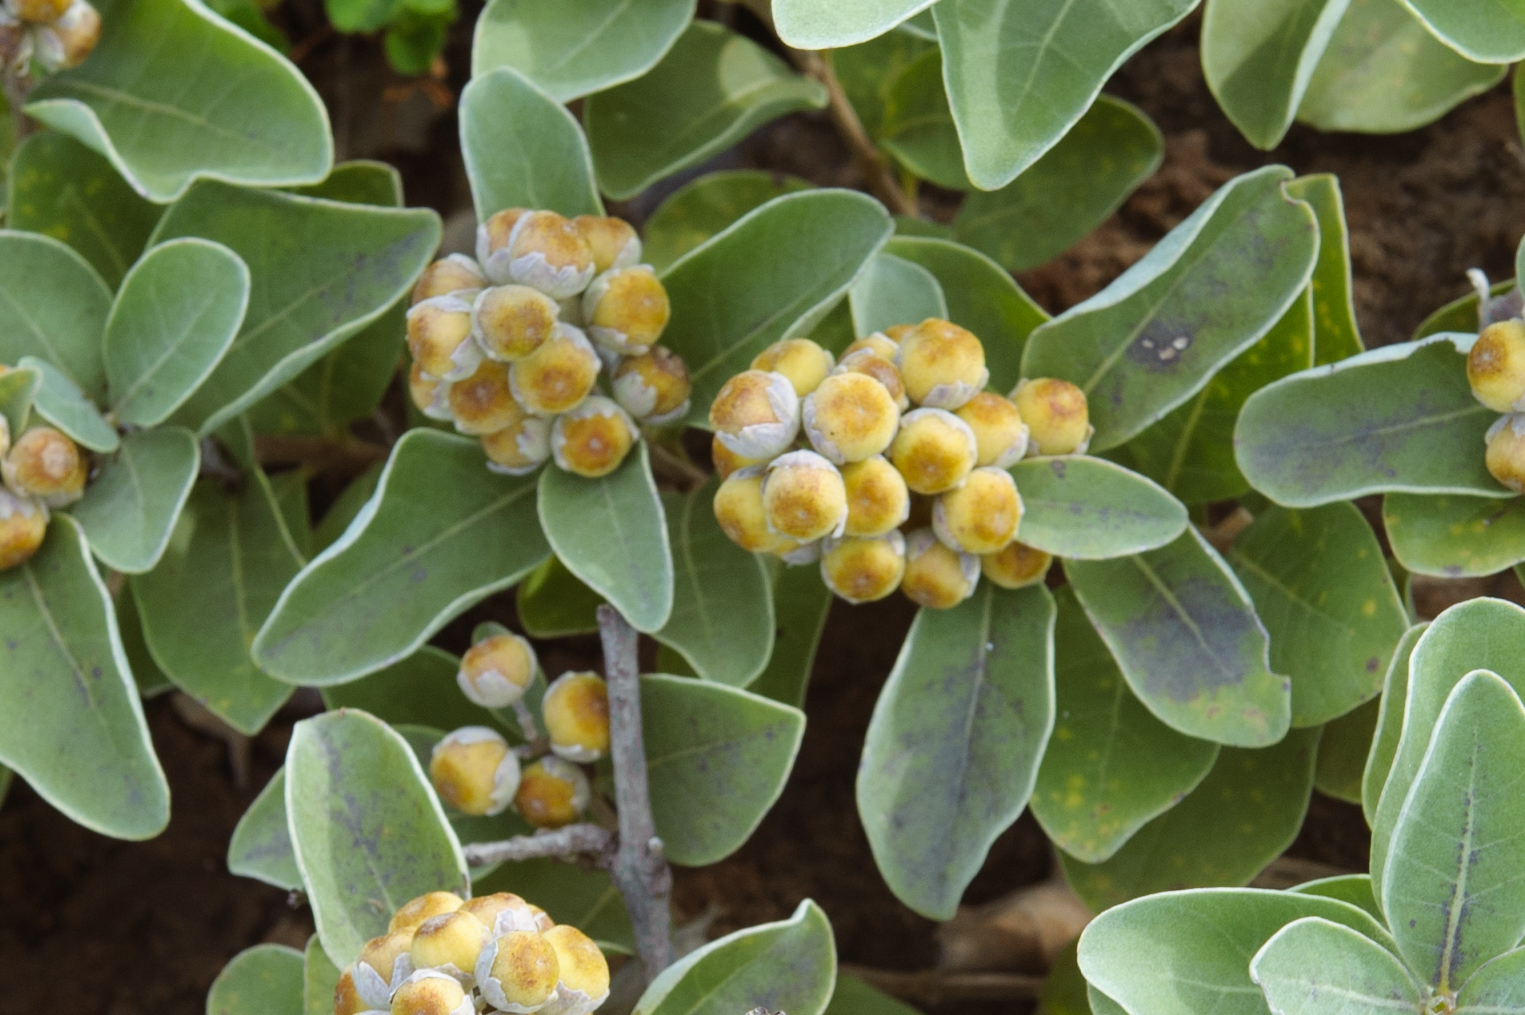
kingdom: Plantae
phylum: Tracheophyta
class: Magnoliopsida
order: Lamiales
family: Lamiaceae
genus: Vitex
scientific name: Vitex rotundifolia
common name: Beach vitex
